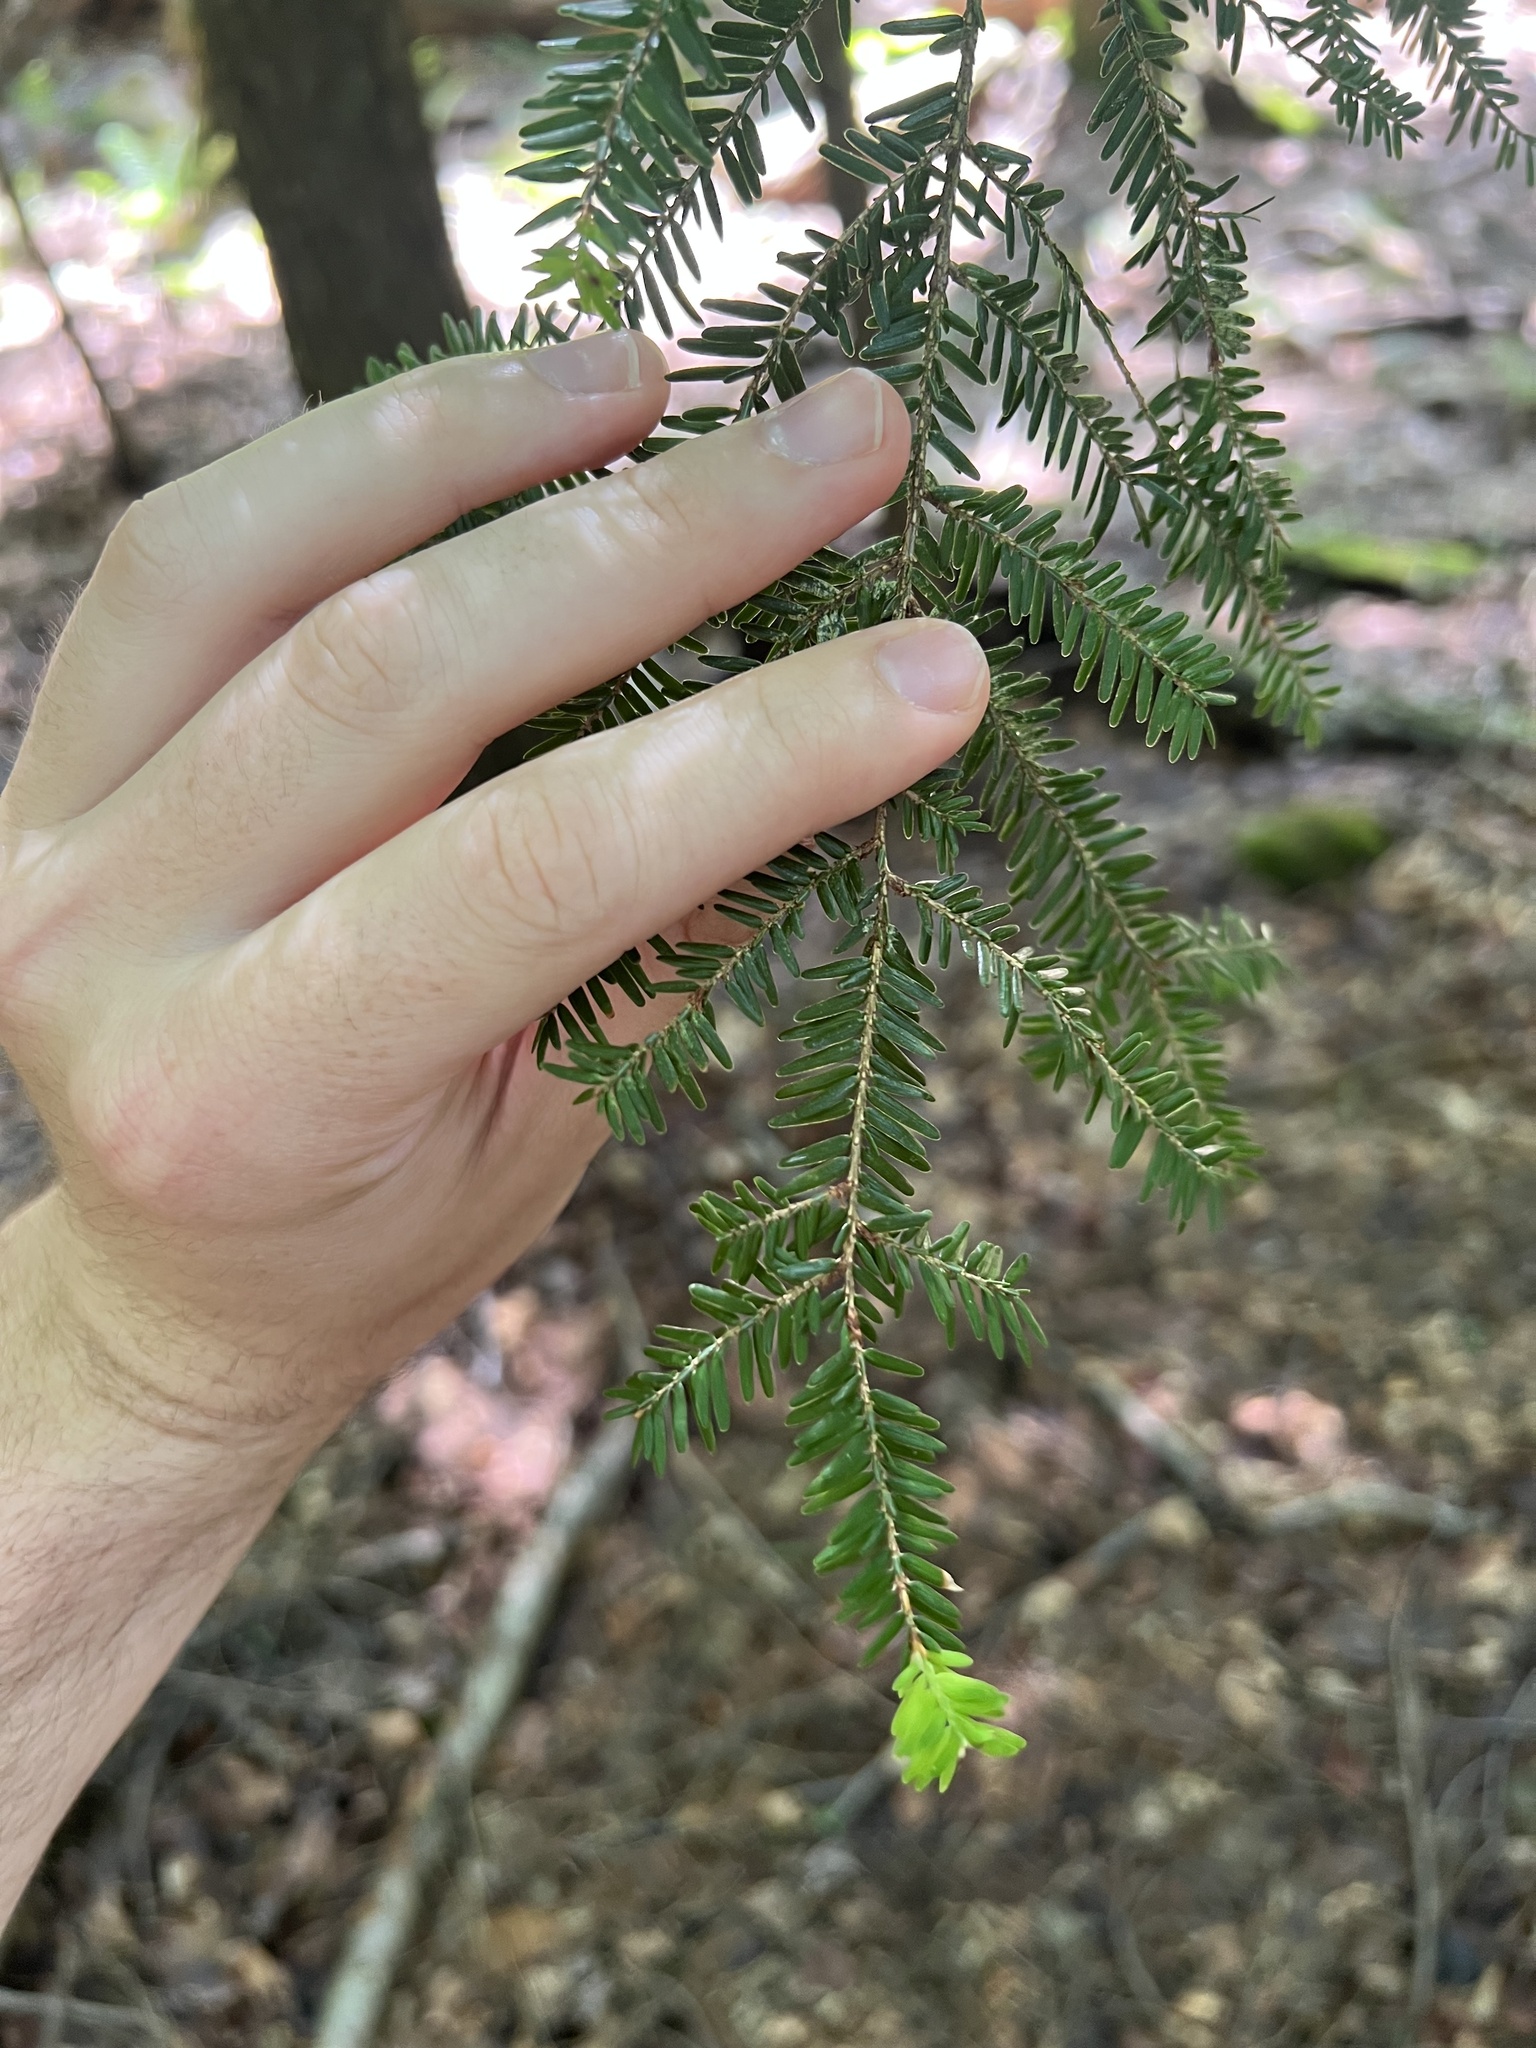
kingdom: Plantae
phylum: Tracheophyta
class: Pinopsida
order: Pinales
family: Pinaceae
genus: Tsuga
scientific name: Tsuga canadensis
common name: Eastern hemlock
